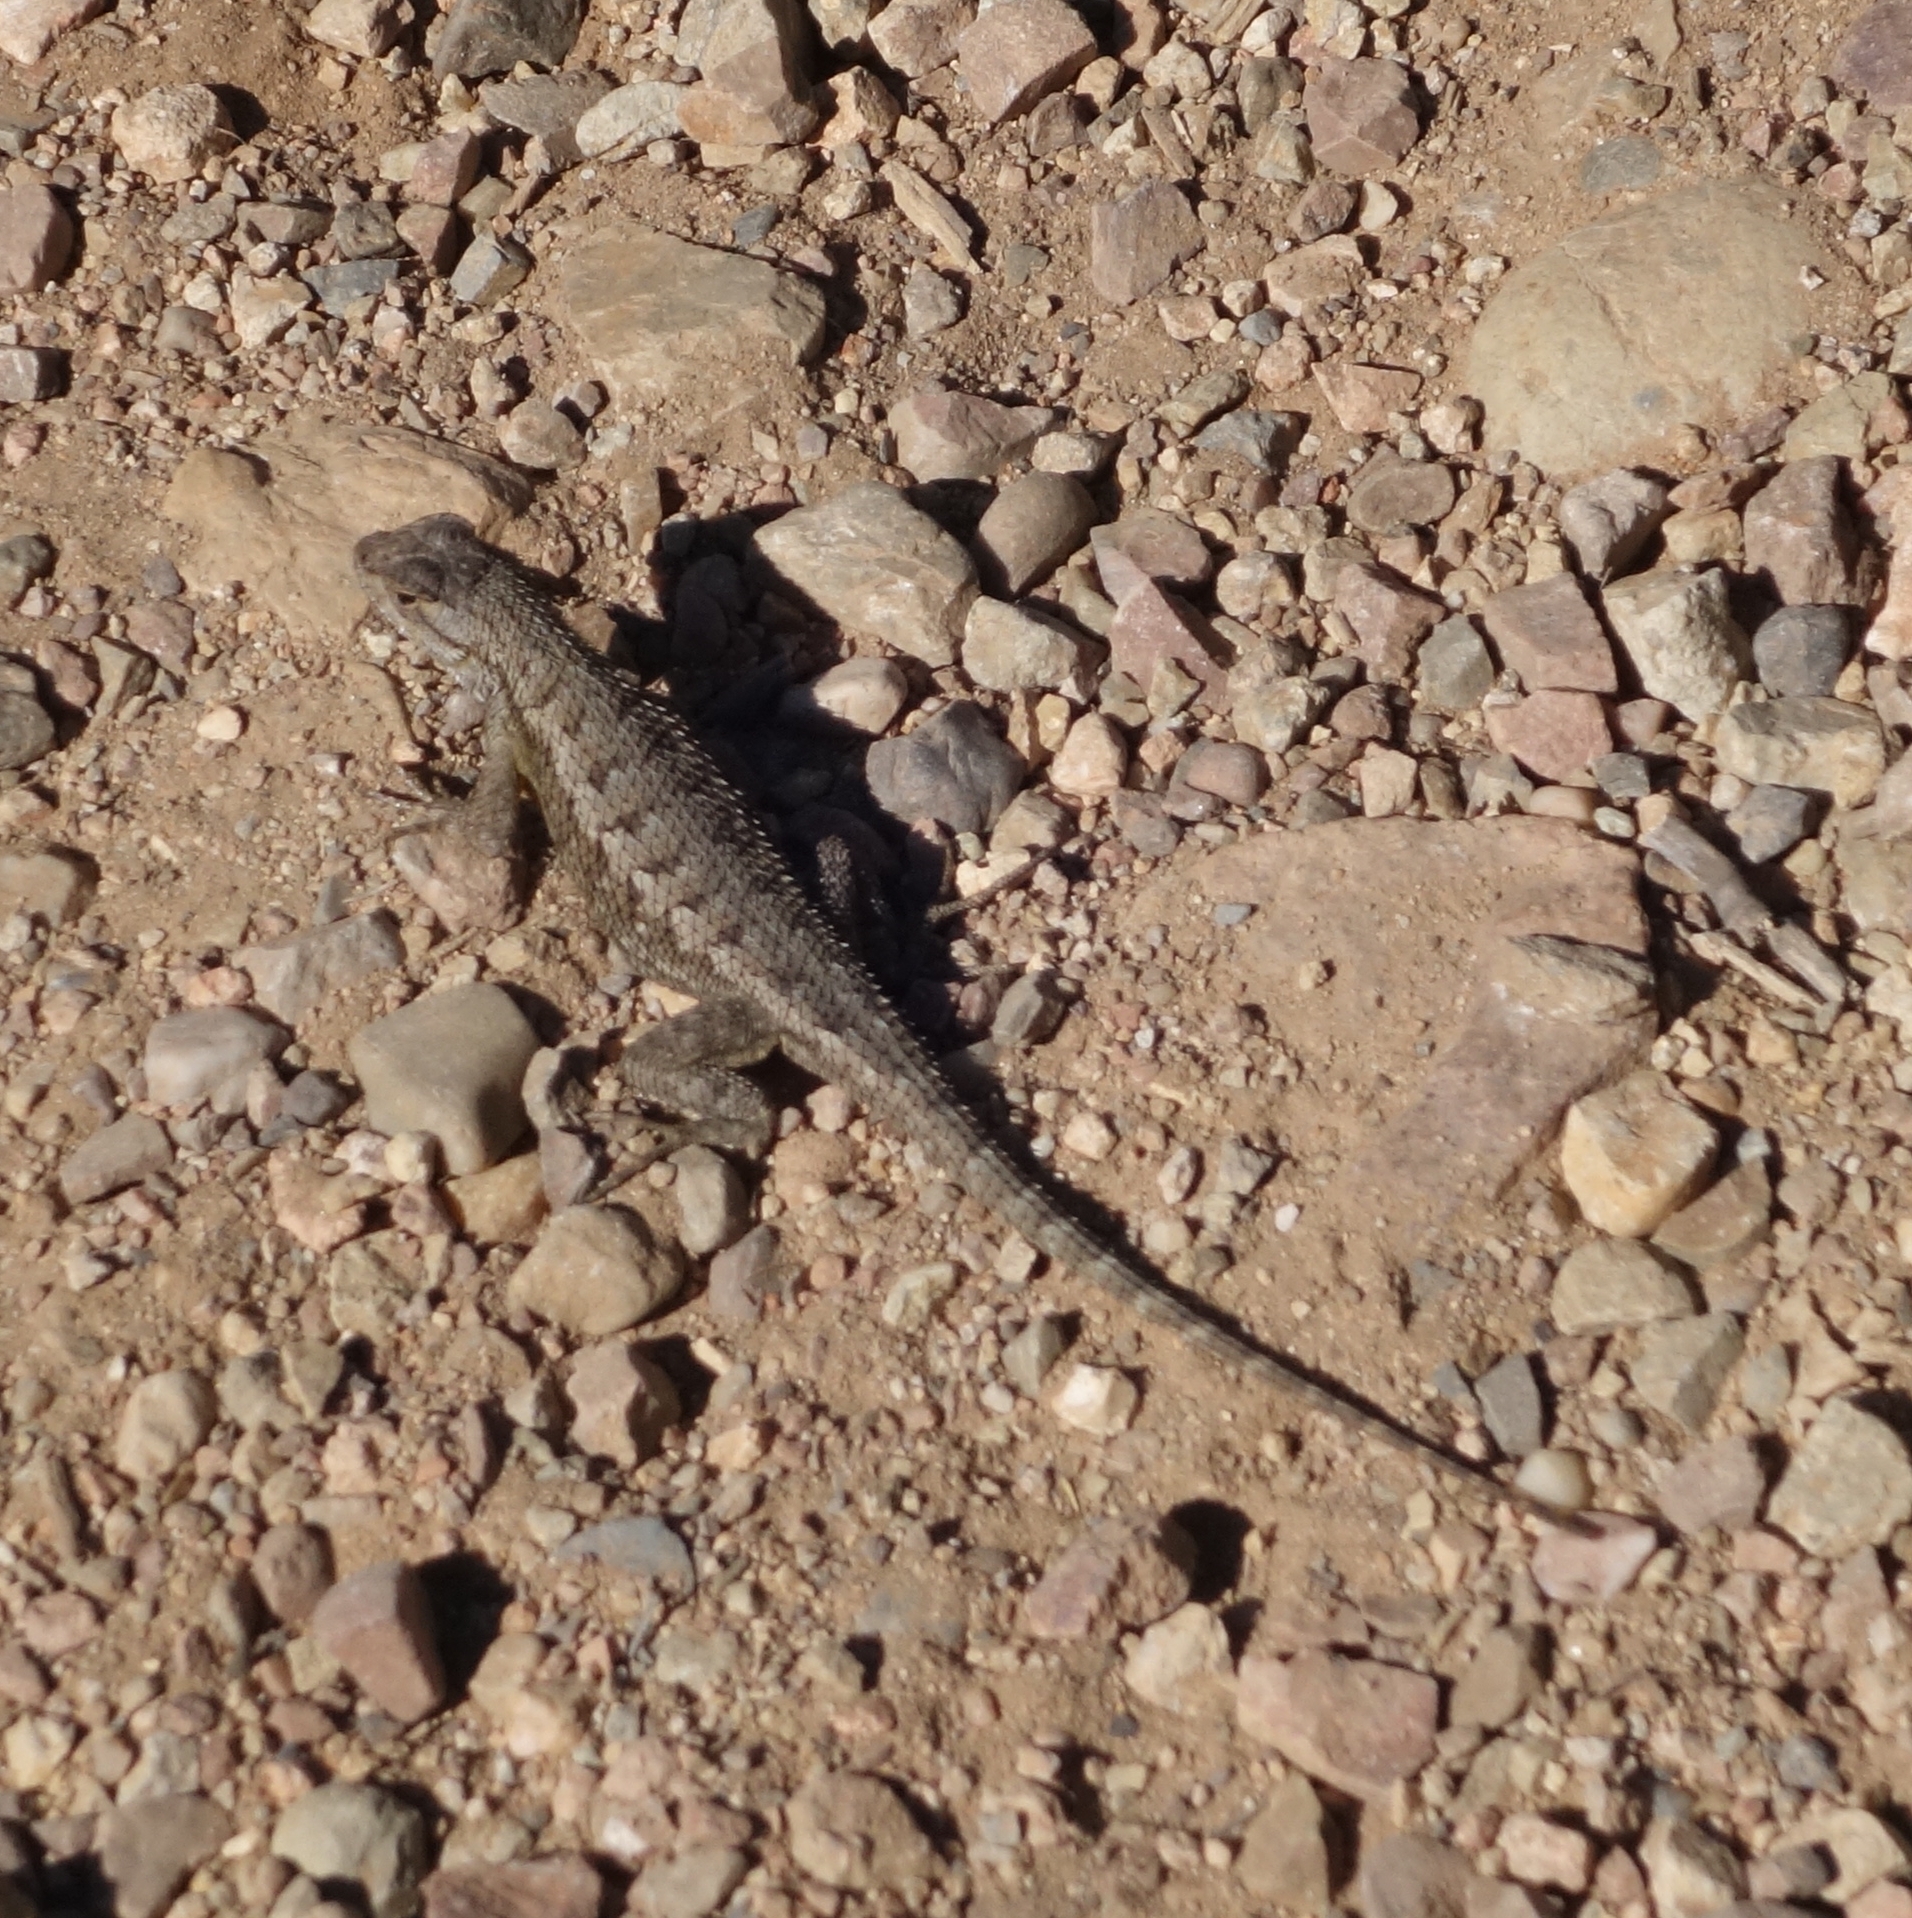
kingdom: Animalia
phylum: Chordata
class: Squamata
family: Phrynosomatidae
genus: Sceloporus
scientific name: Sceloporus occidentalis
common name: Western fence lizard
